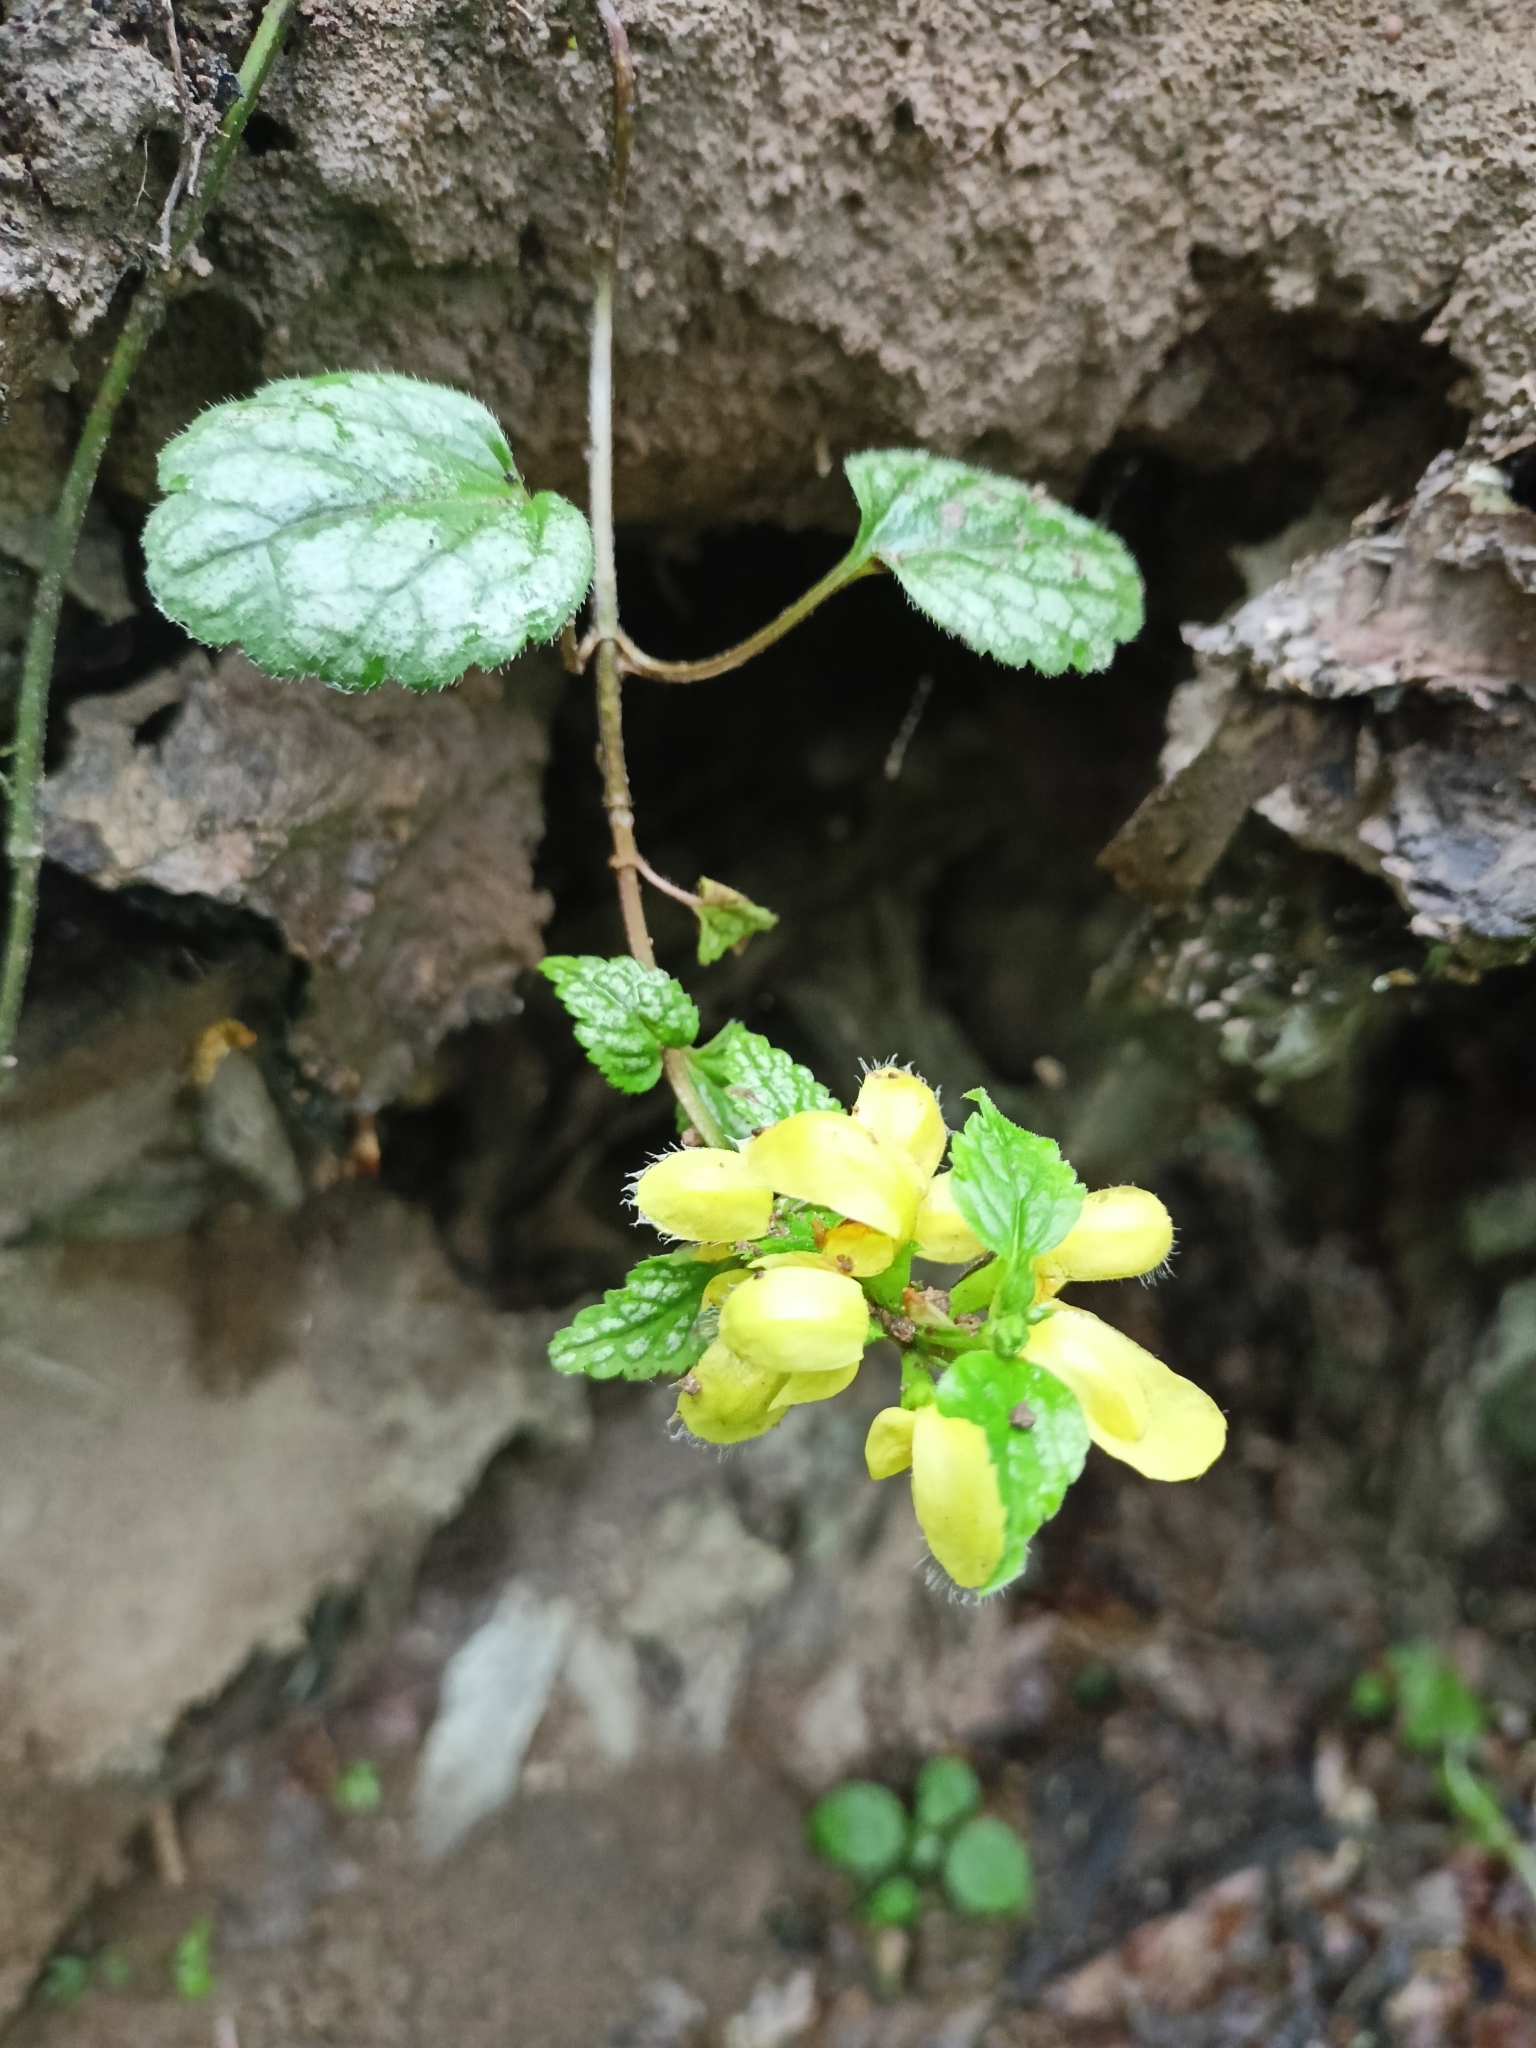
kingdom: Plantae
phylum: Tracheophyta
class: Magnoliopsida
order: Lamiales
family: Lamiaceae
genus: Lamium
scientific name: Lamium galeobdolon
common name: Yellow archangel
